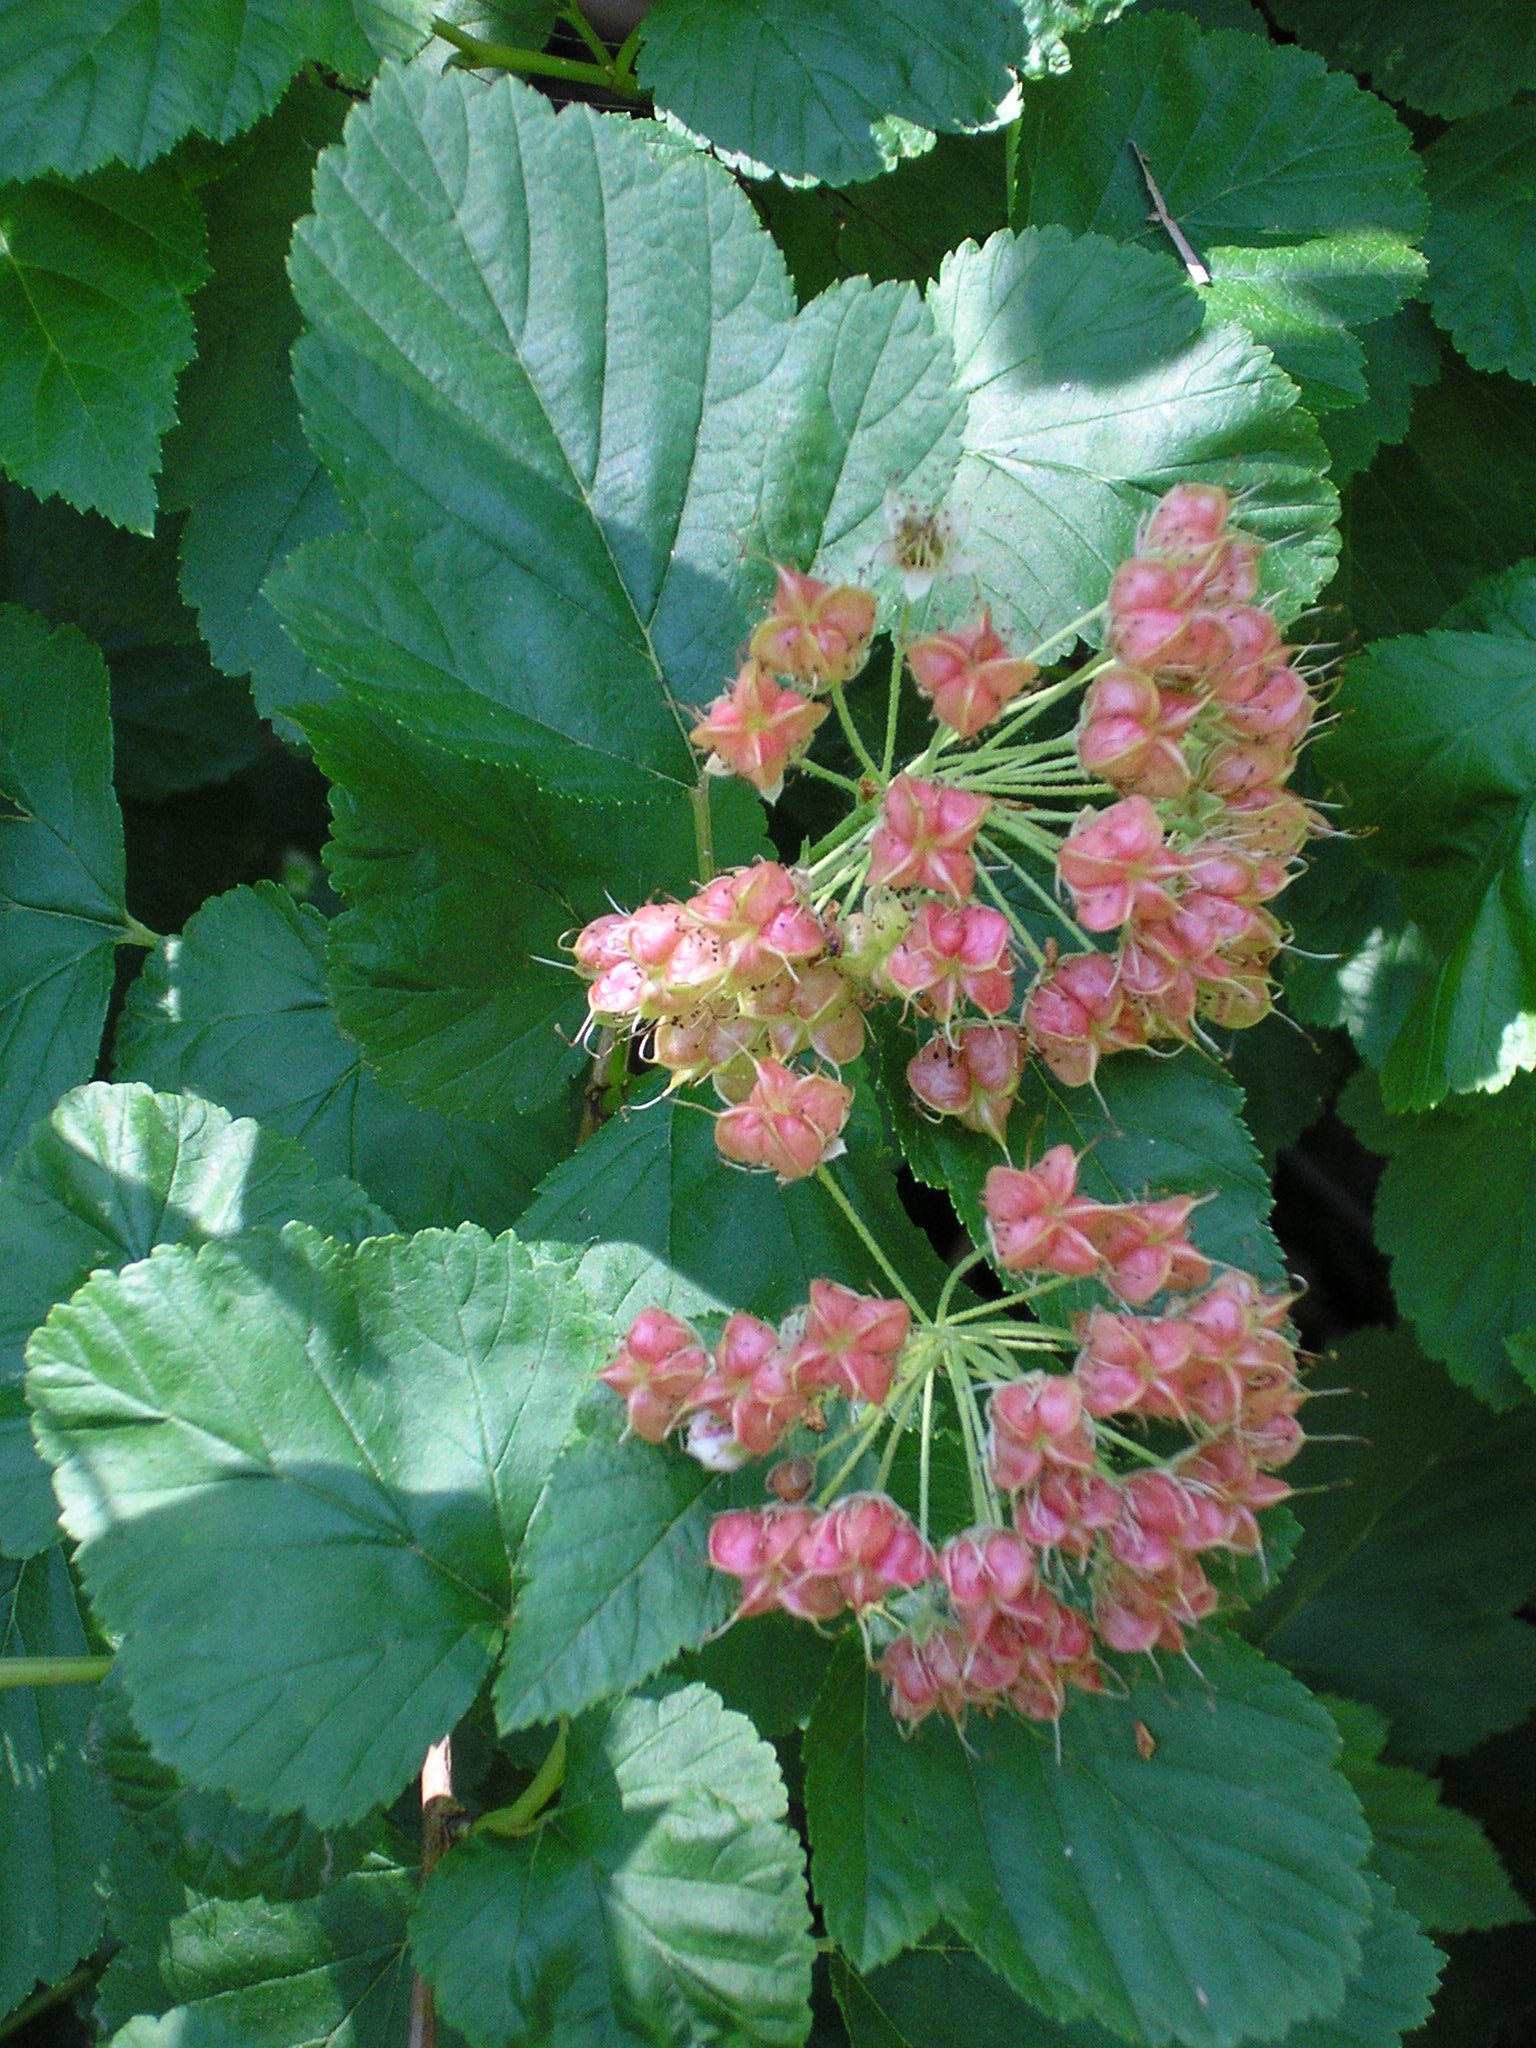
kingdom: Plantae
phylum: Tracheophyta
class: Magnoliopsida
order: Rosales
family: Rosaceae
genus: Physocarpus
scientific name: Physocarpus opulifolius
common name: Ninebark
